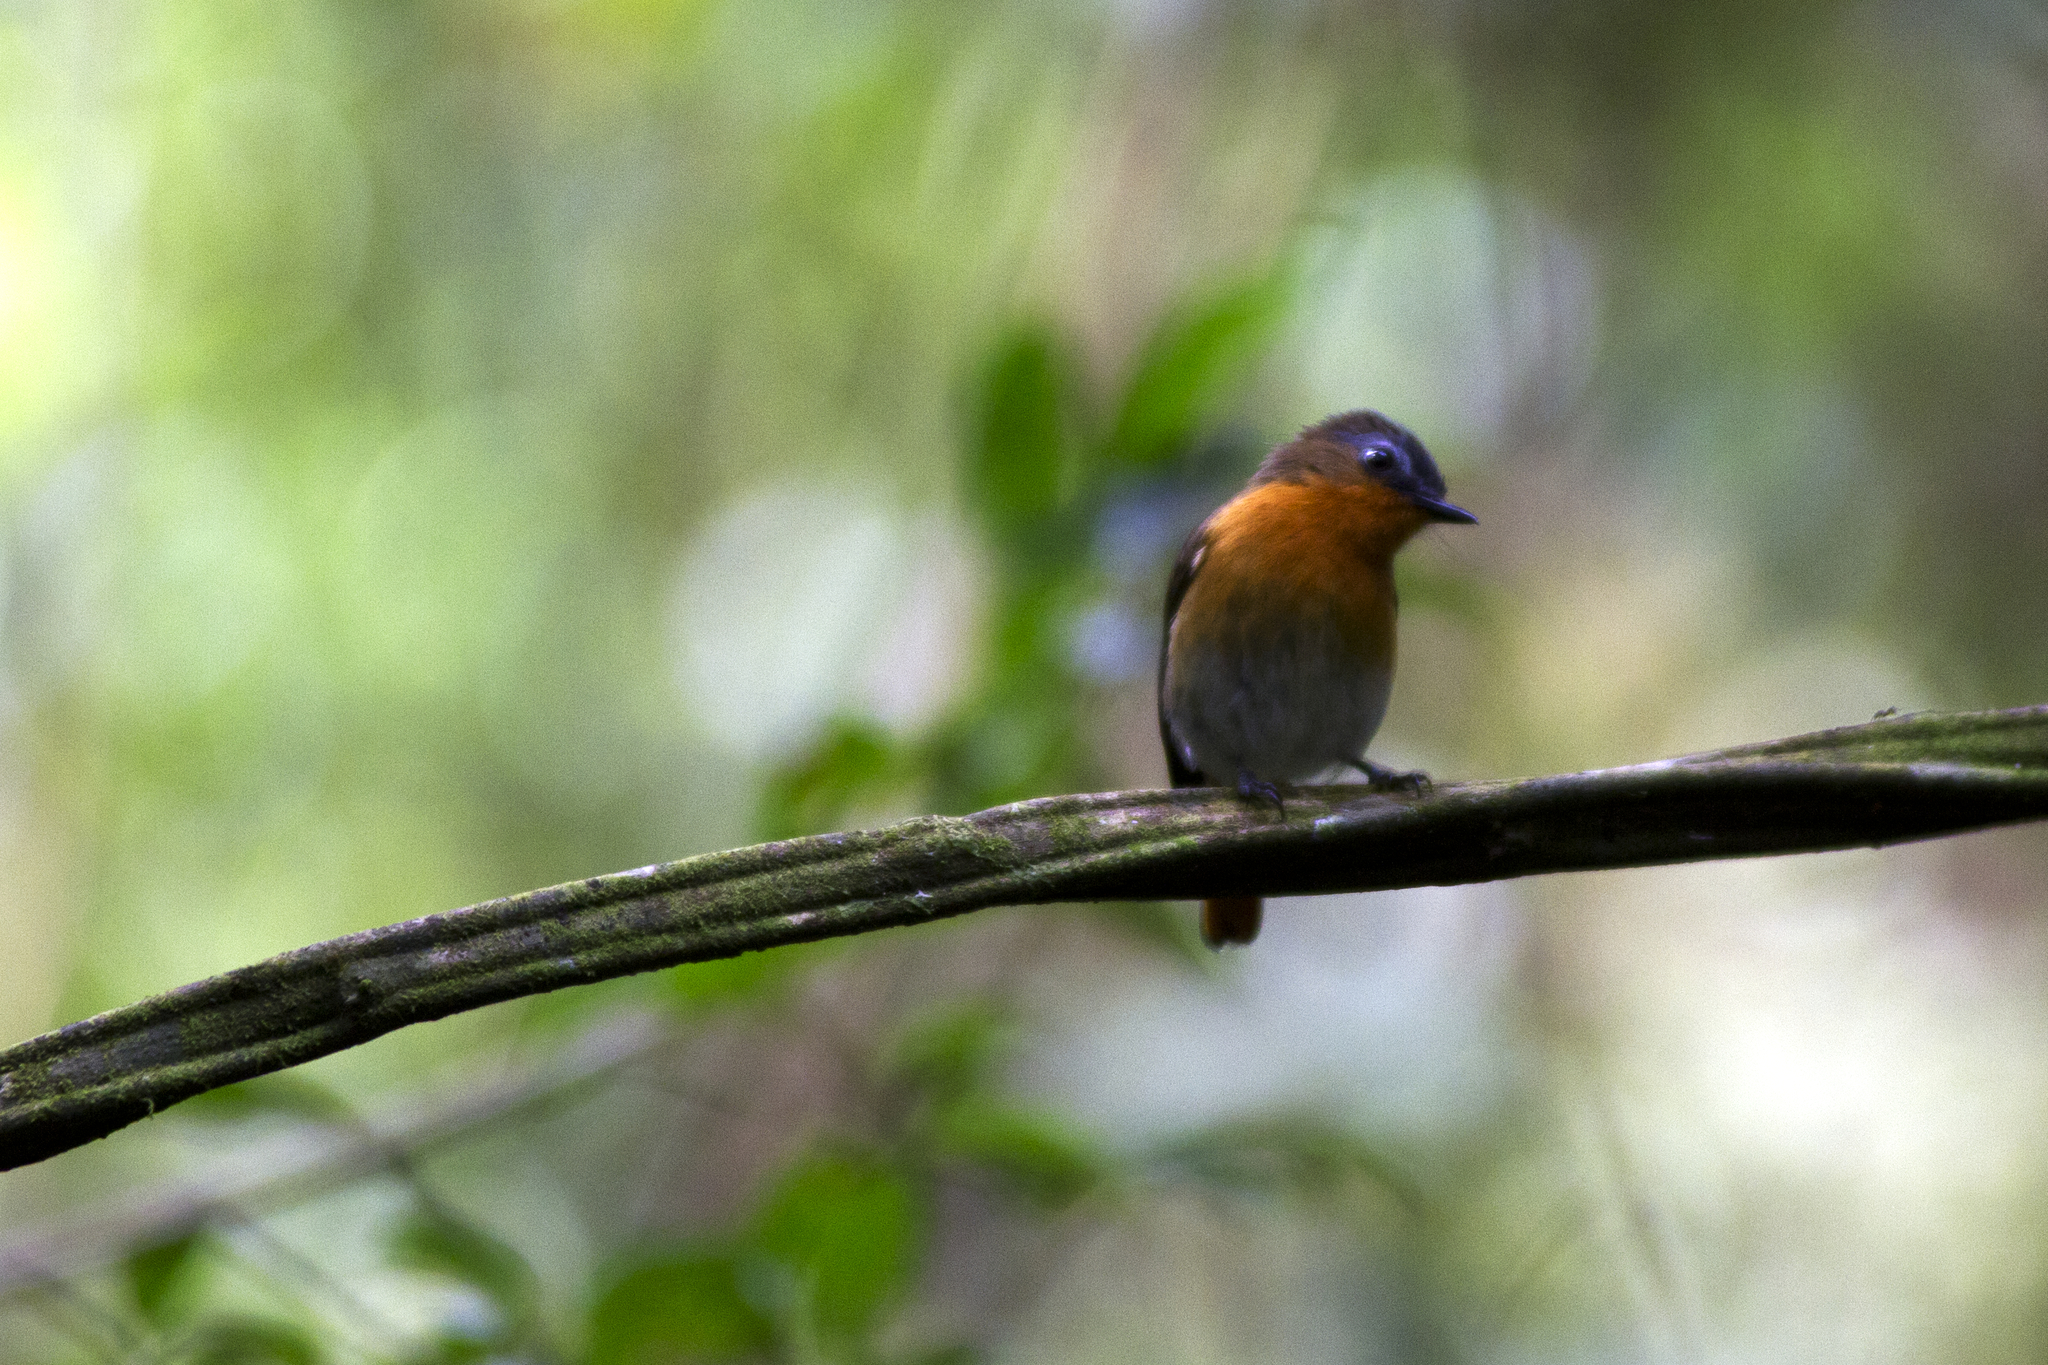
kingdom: Animalia
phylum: Chordata
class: Aves
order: Passeriformes
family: Muscicapidae
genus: Cossyphicula
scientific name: Cossyphicula roberti
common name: White-bellied robin-chat
